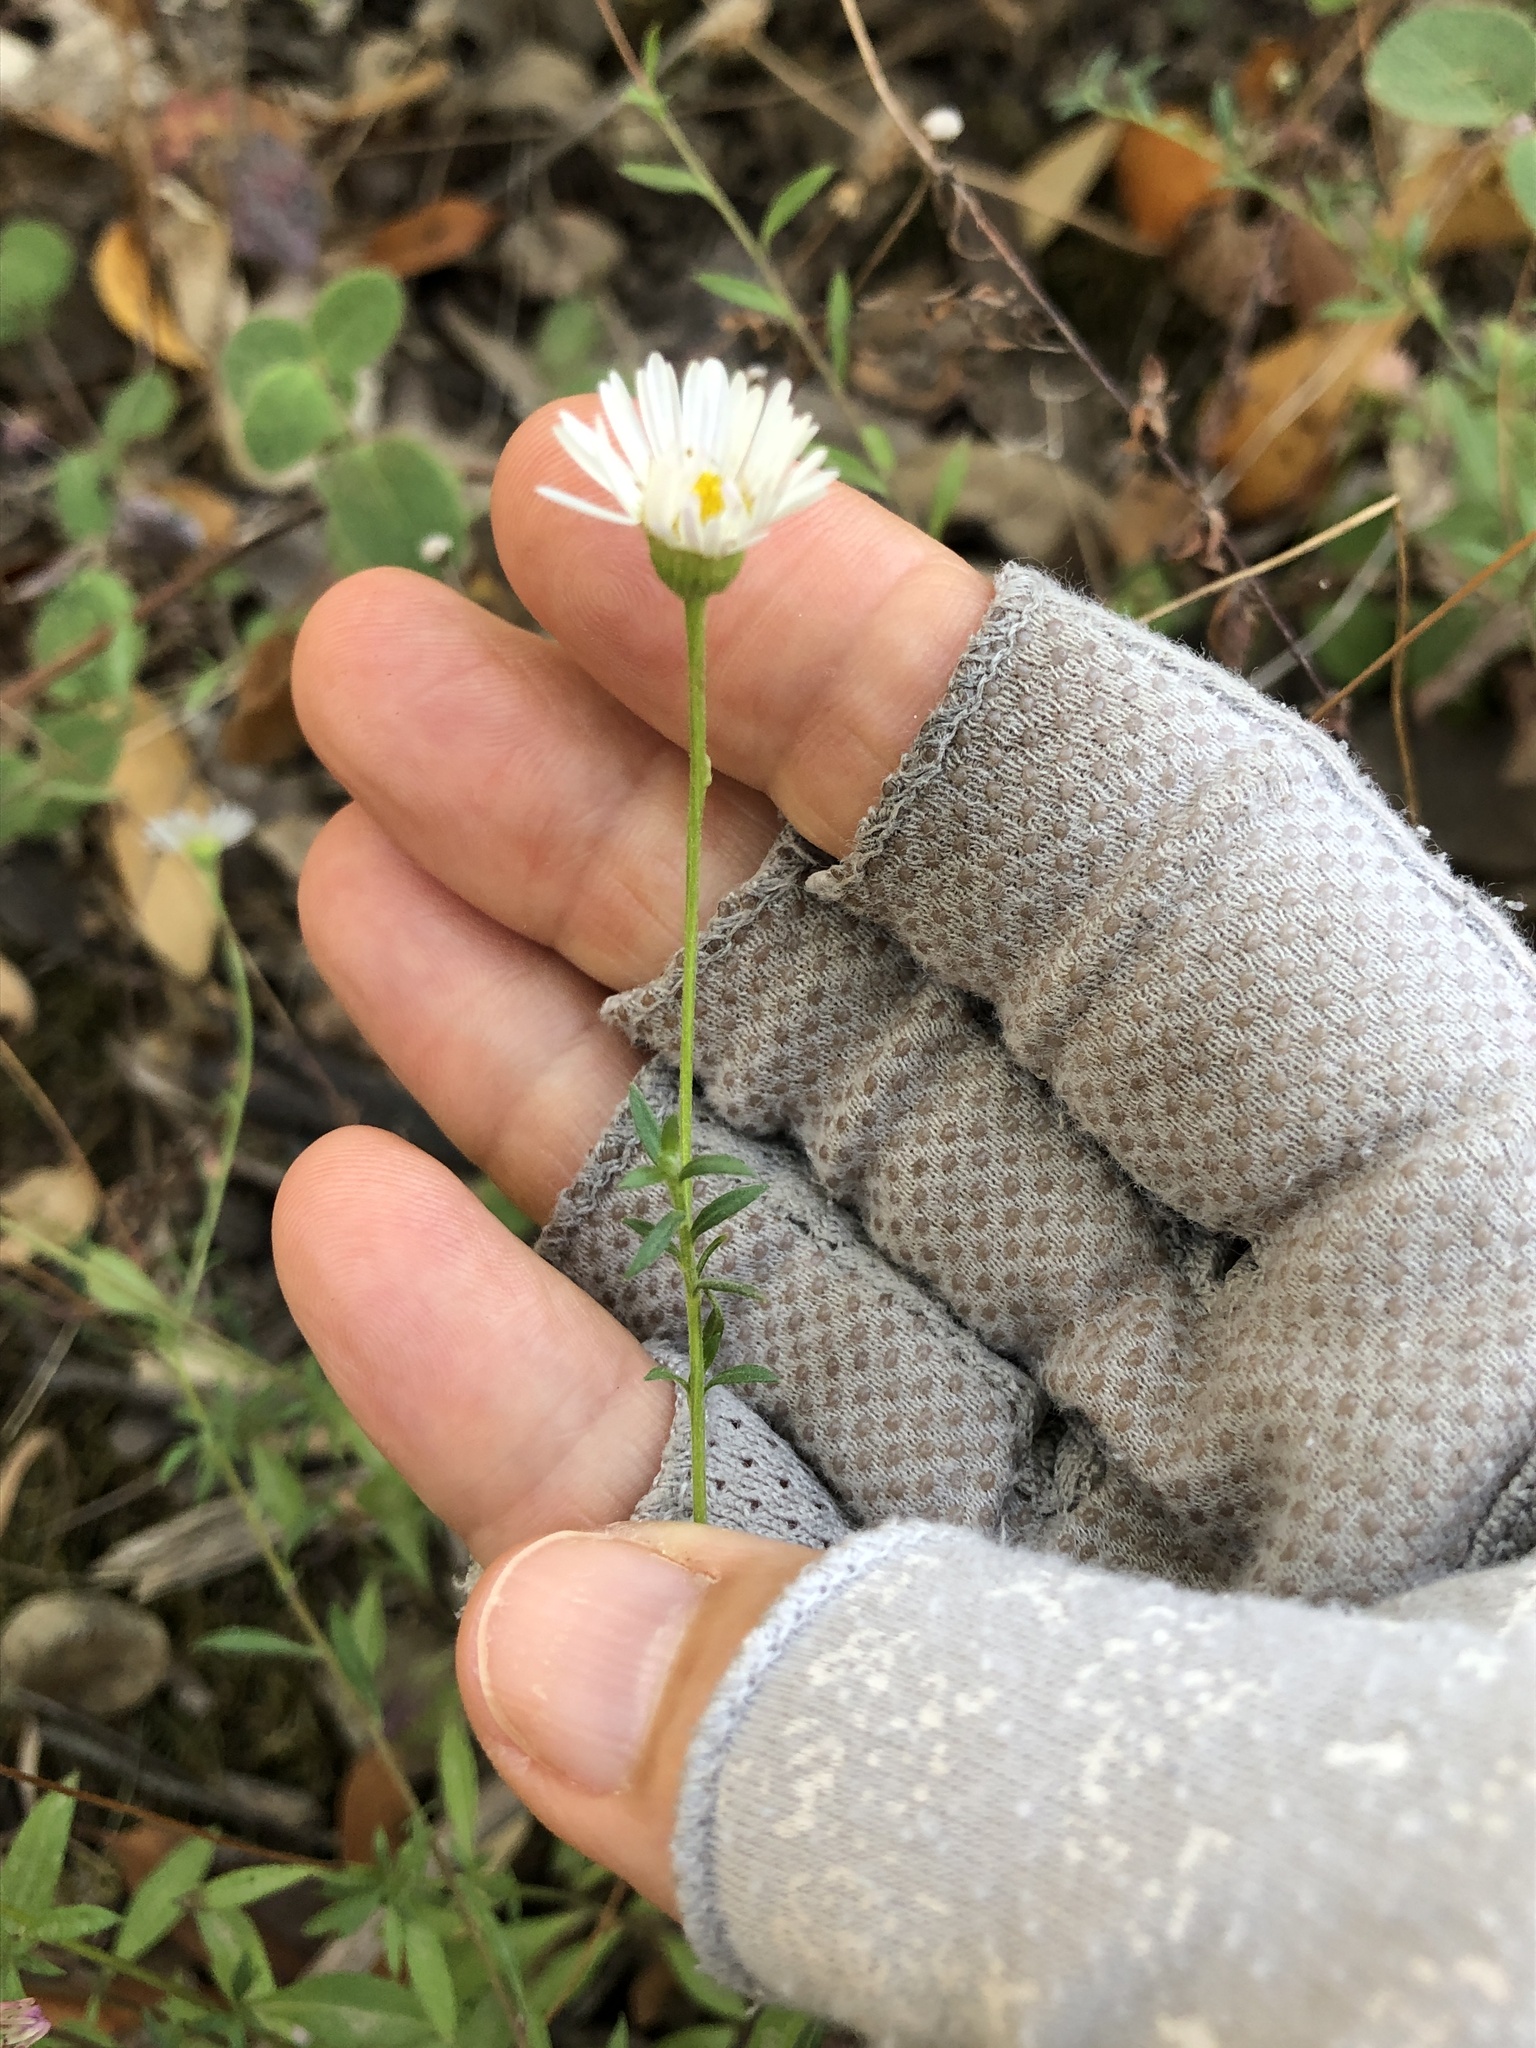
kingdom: Plantae
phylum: Tracheophyta
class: Magnoliopsida
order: Asterales
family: Asteraceae
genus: Erigeron
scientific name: Erigeron karvinskianus
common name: Mexican fleabane
